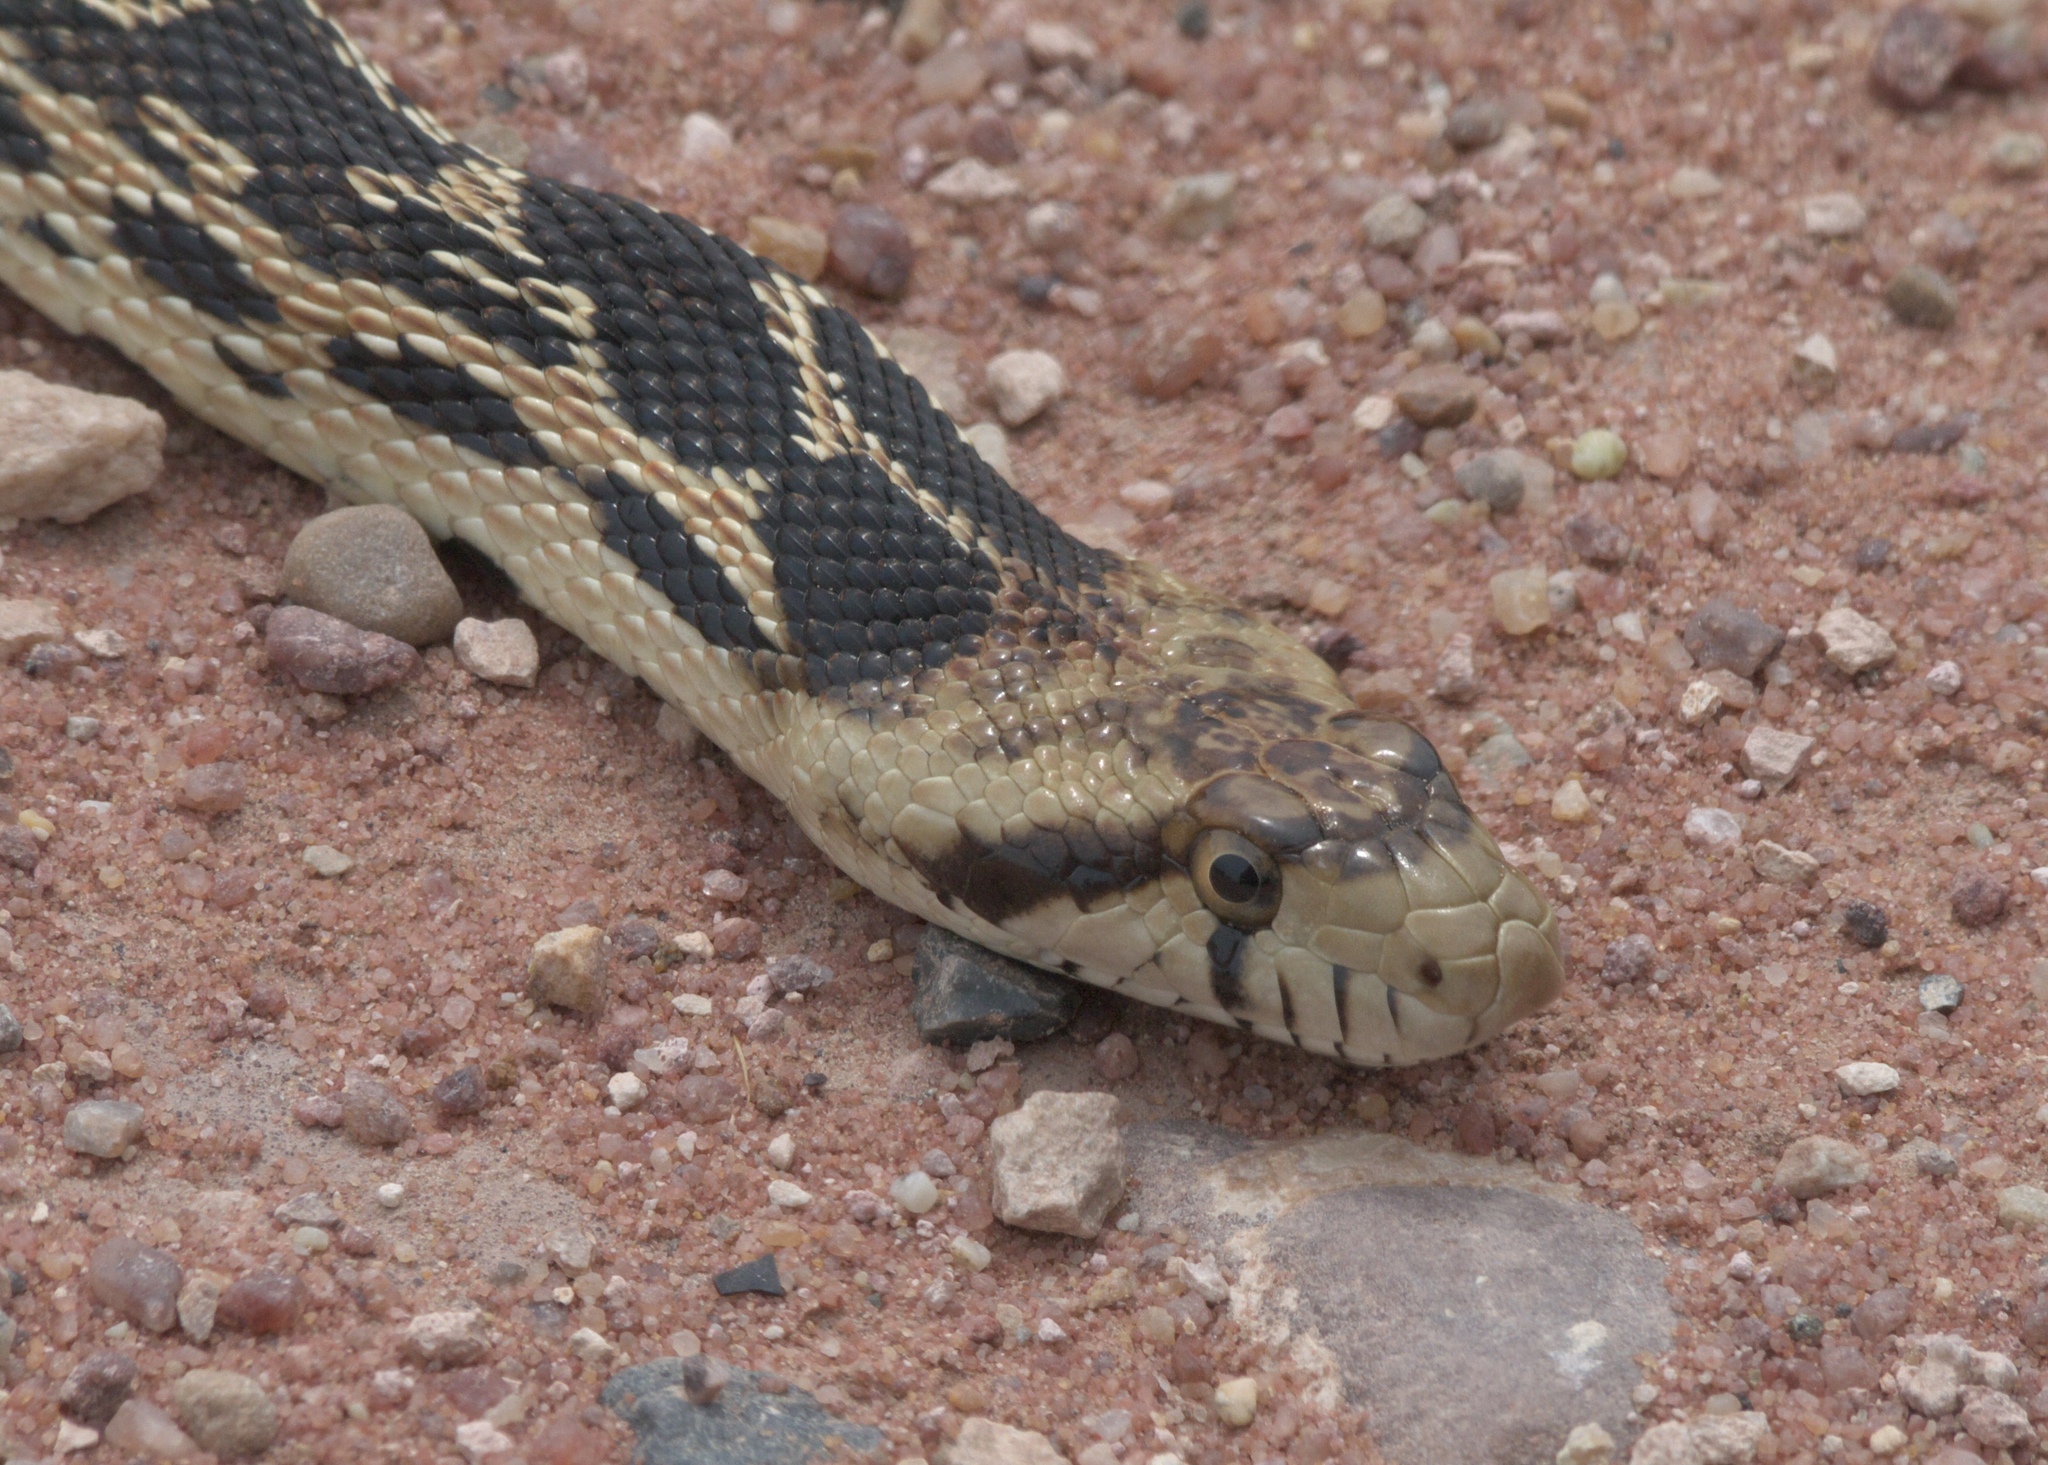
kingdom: Animalia
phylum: Chordata
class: Squamata
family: Colubridae
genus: Pituophis
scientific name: Pituophis catenifer
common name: Gopher snake
